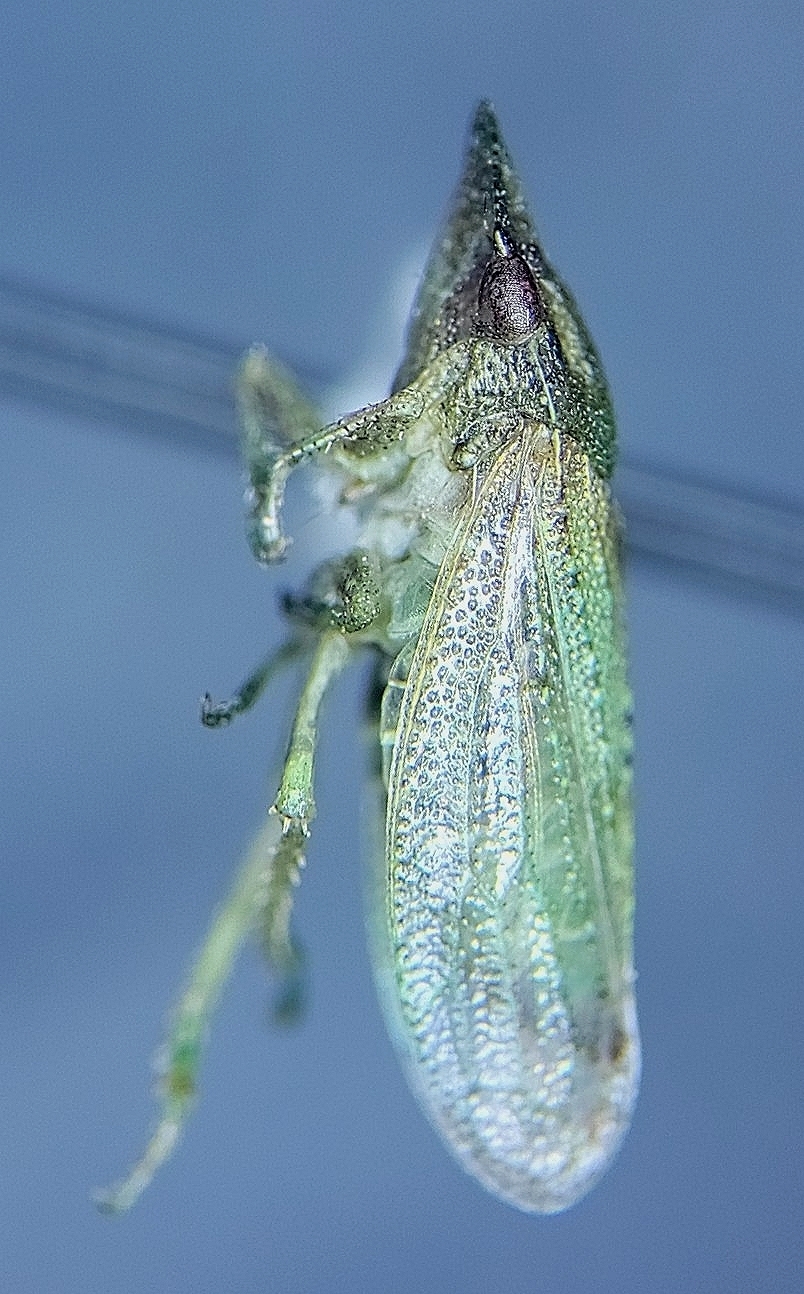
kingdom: Animalia
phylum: Arthropoda
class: Insecta
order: Hemiptera
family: Cicadellidae
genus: Xerophloea
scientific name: Xerophloea peltata
